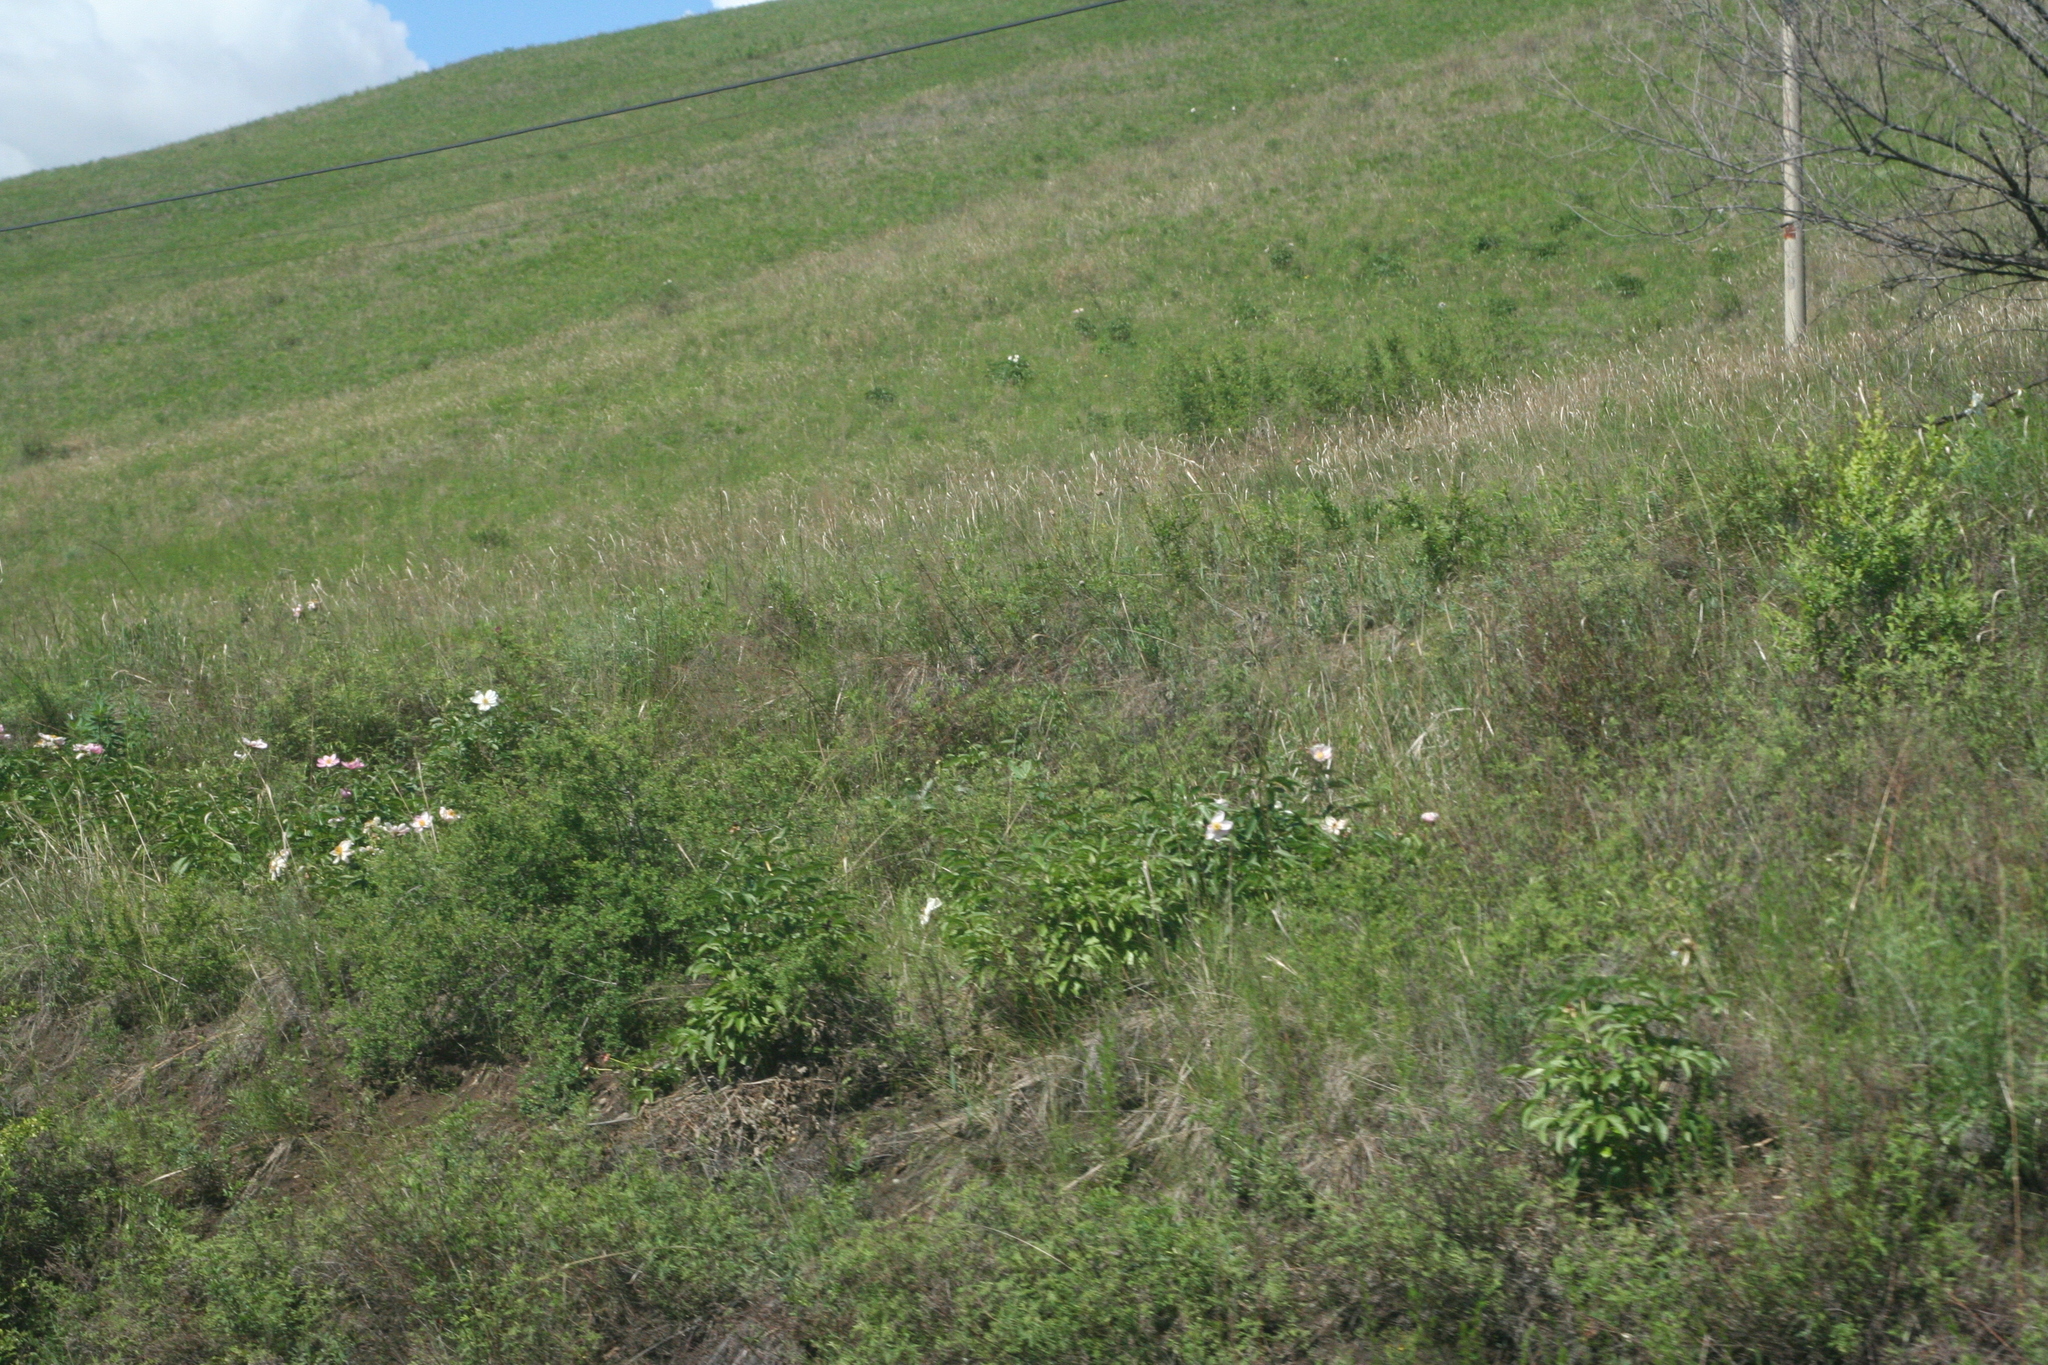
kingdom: Plantae
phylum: Tracheophyta
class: Magnoliopsida
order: Saxifragales
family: Paeoniaceae
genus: Paeonia
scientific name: Paeonia lactiflora
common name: Chinese peony
